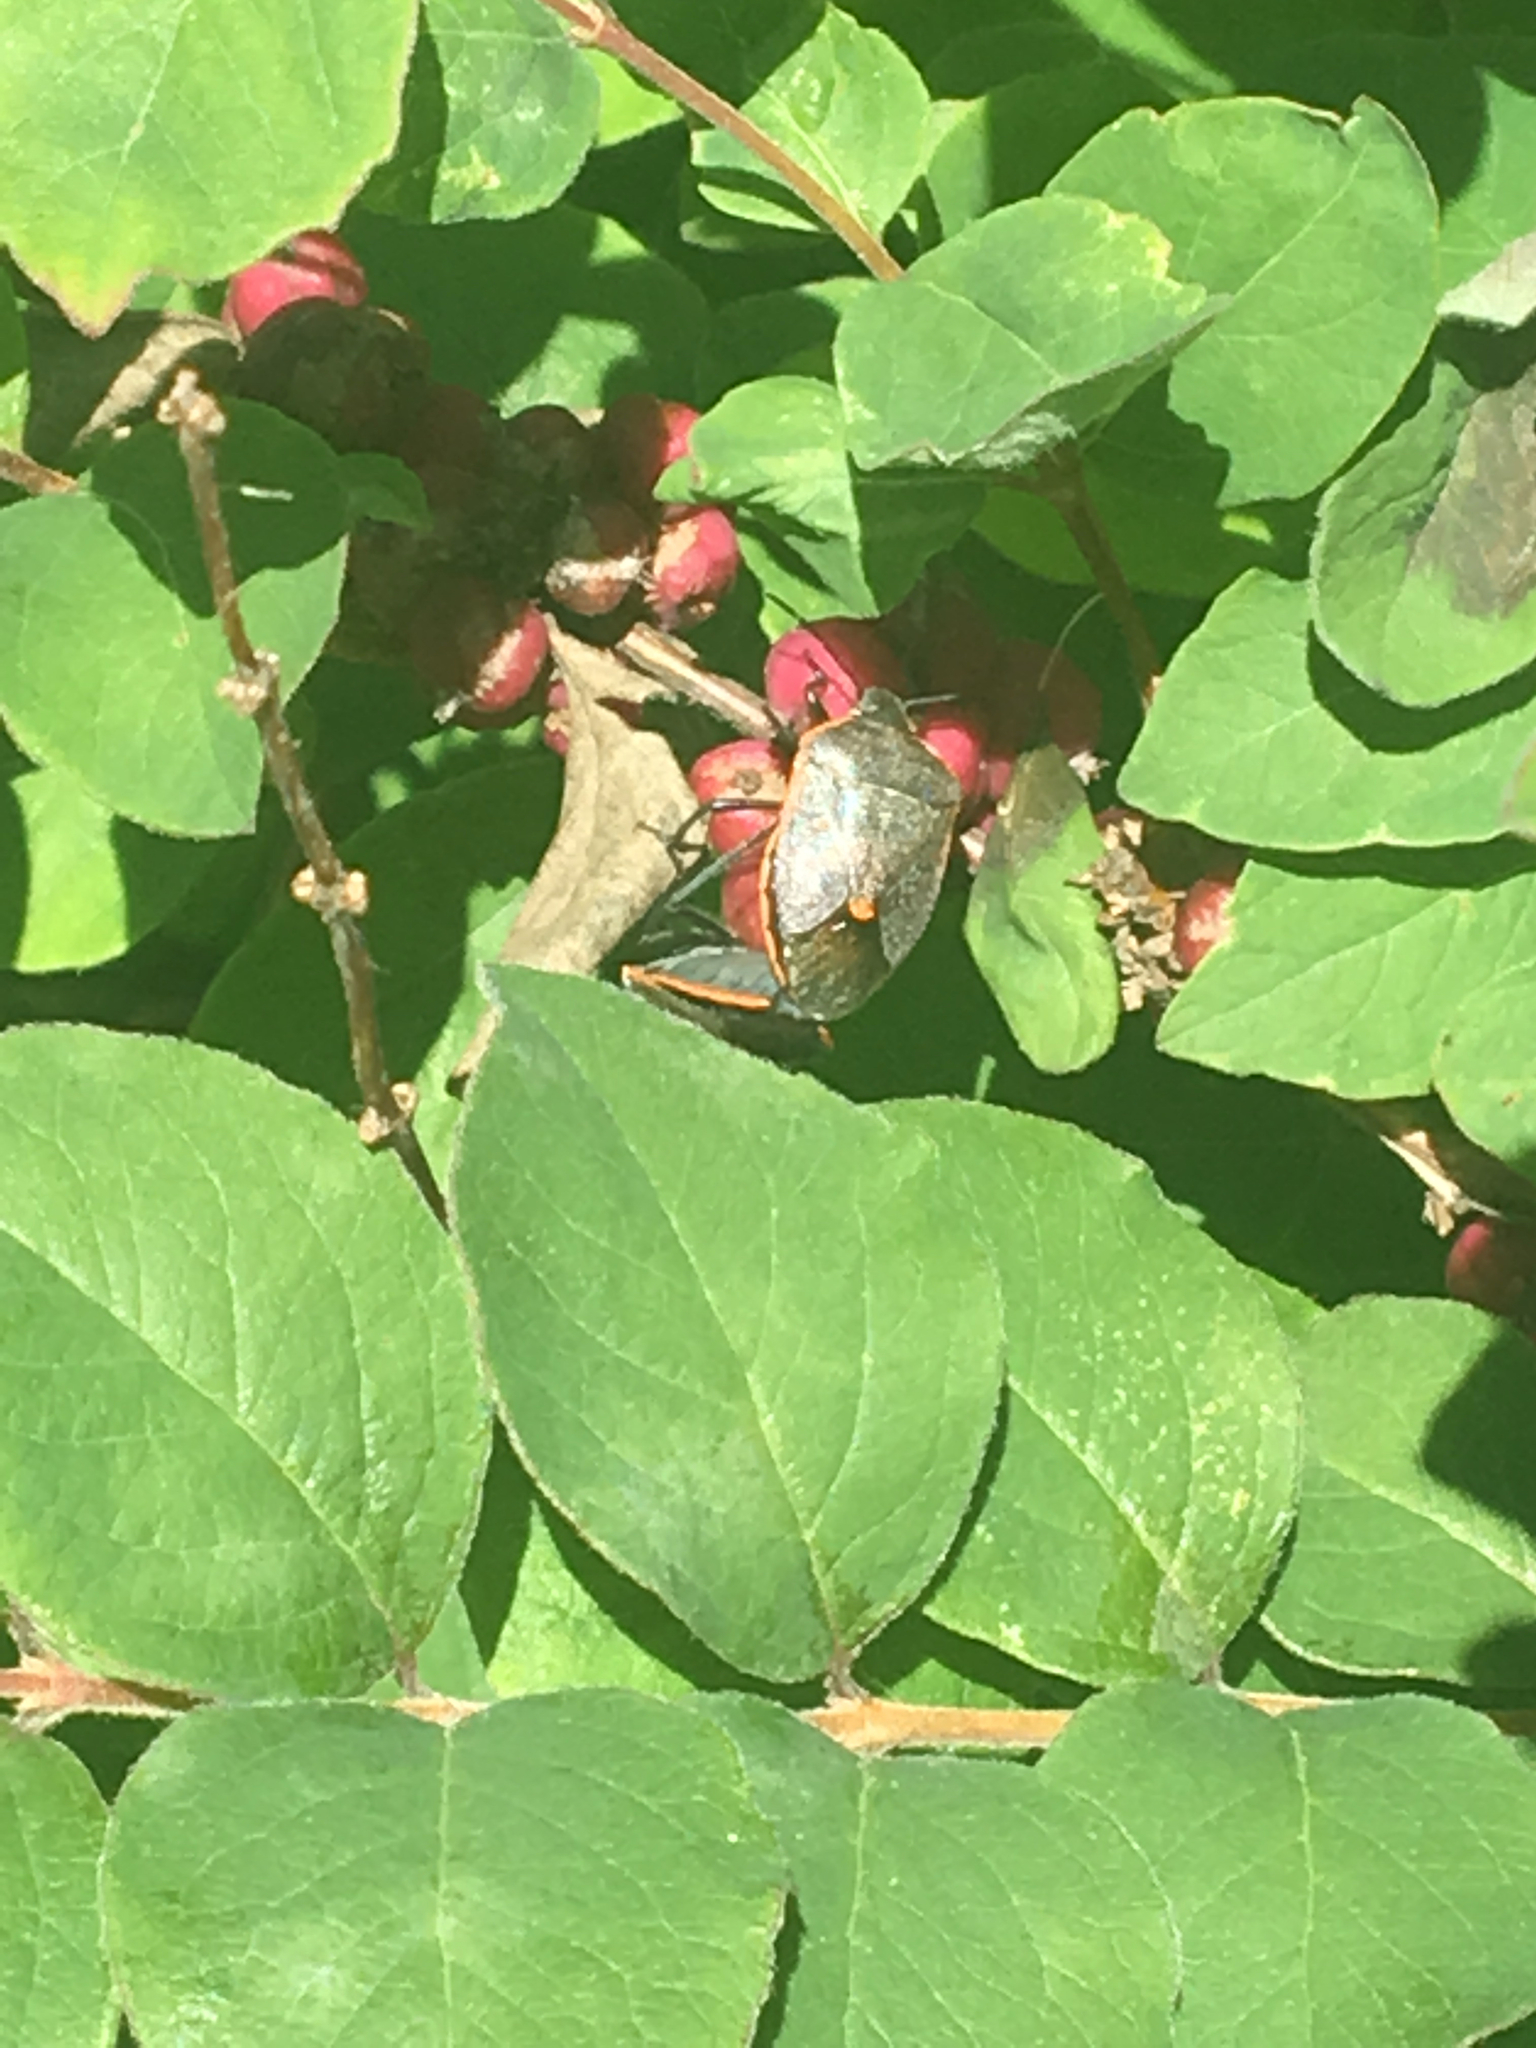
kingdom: Animalia
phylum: Arthropoda
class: Insecta
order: Hemiptera
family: Pentatomidae
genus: Chlorochroa
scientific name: Chlorochroa ligata
